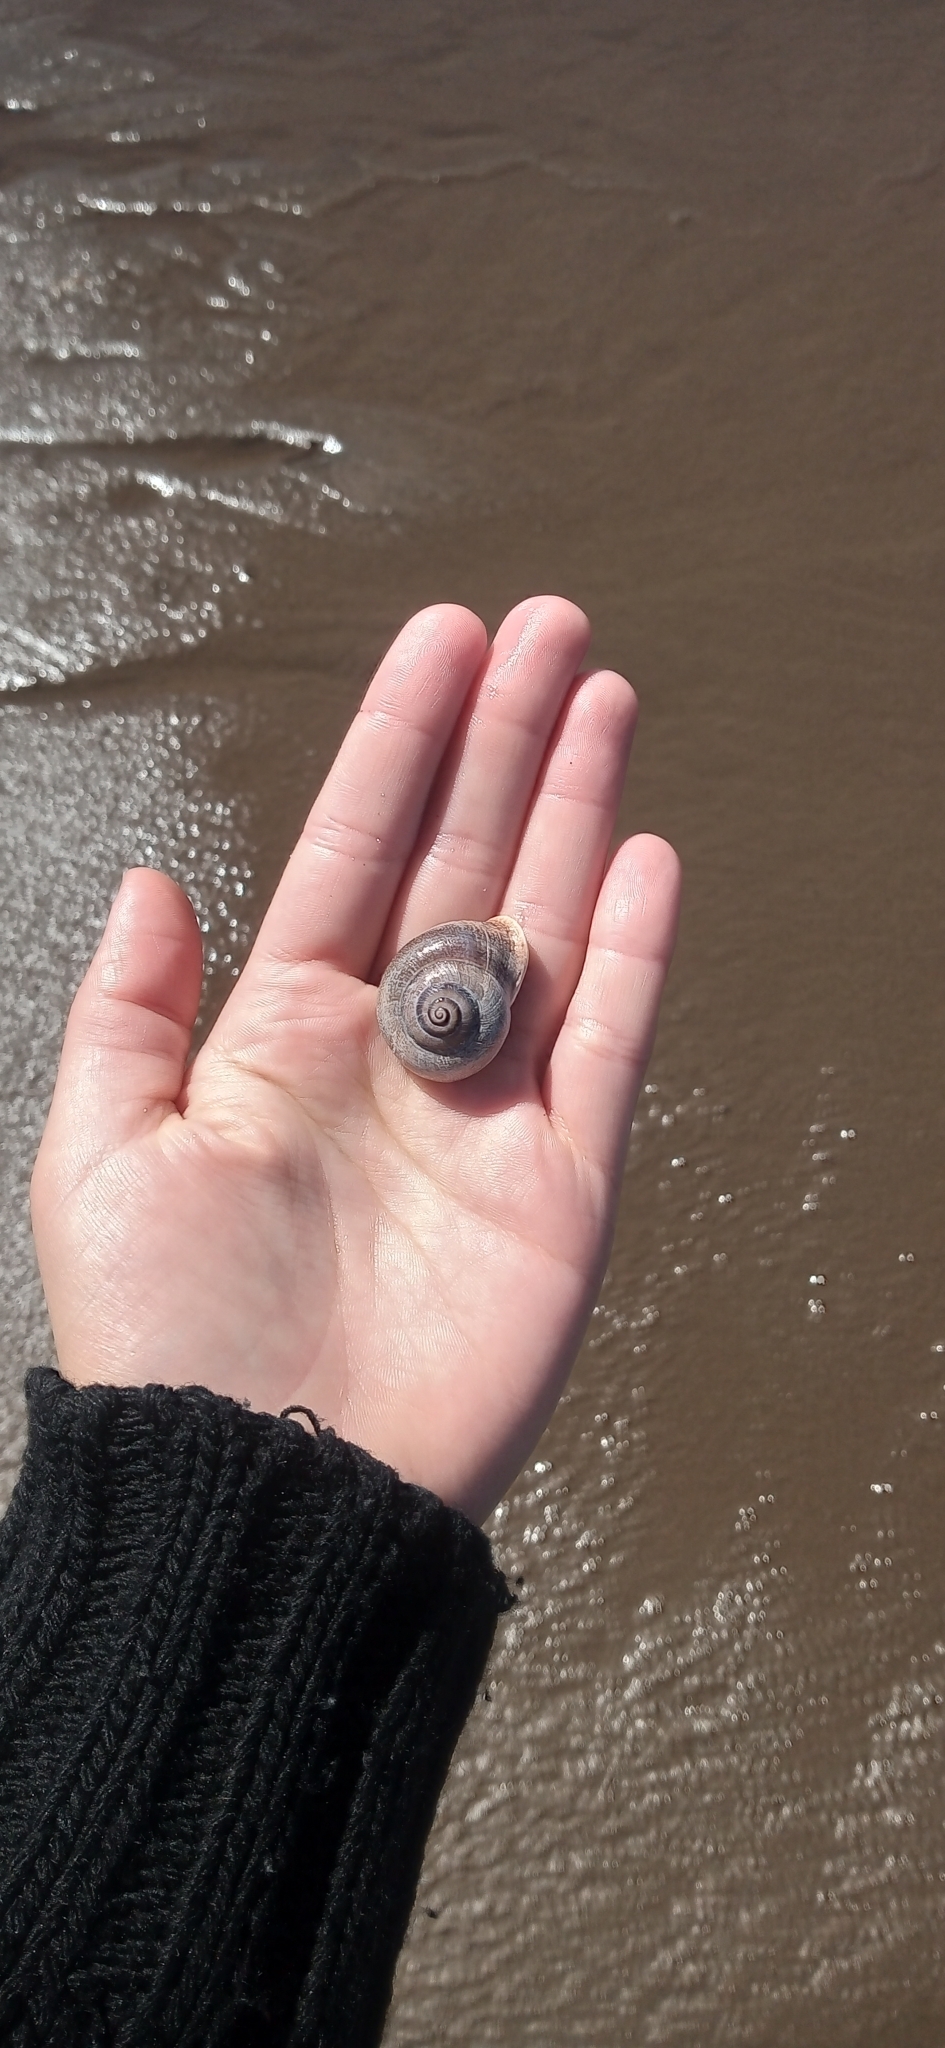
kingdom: Animalia
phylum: Mollusca
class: Gastropoda
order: Stylommatophora
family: Helicidae
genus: Otala
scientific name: Otala punctata
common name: Milk snail
